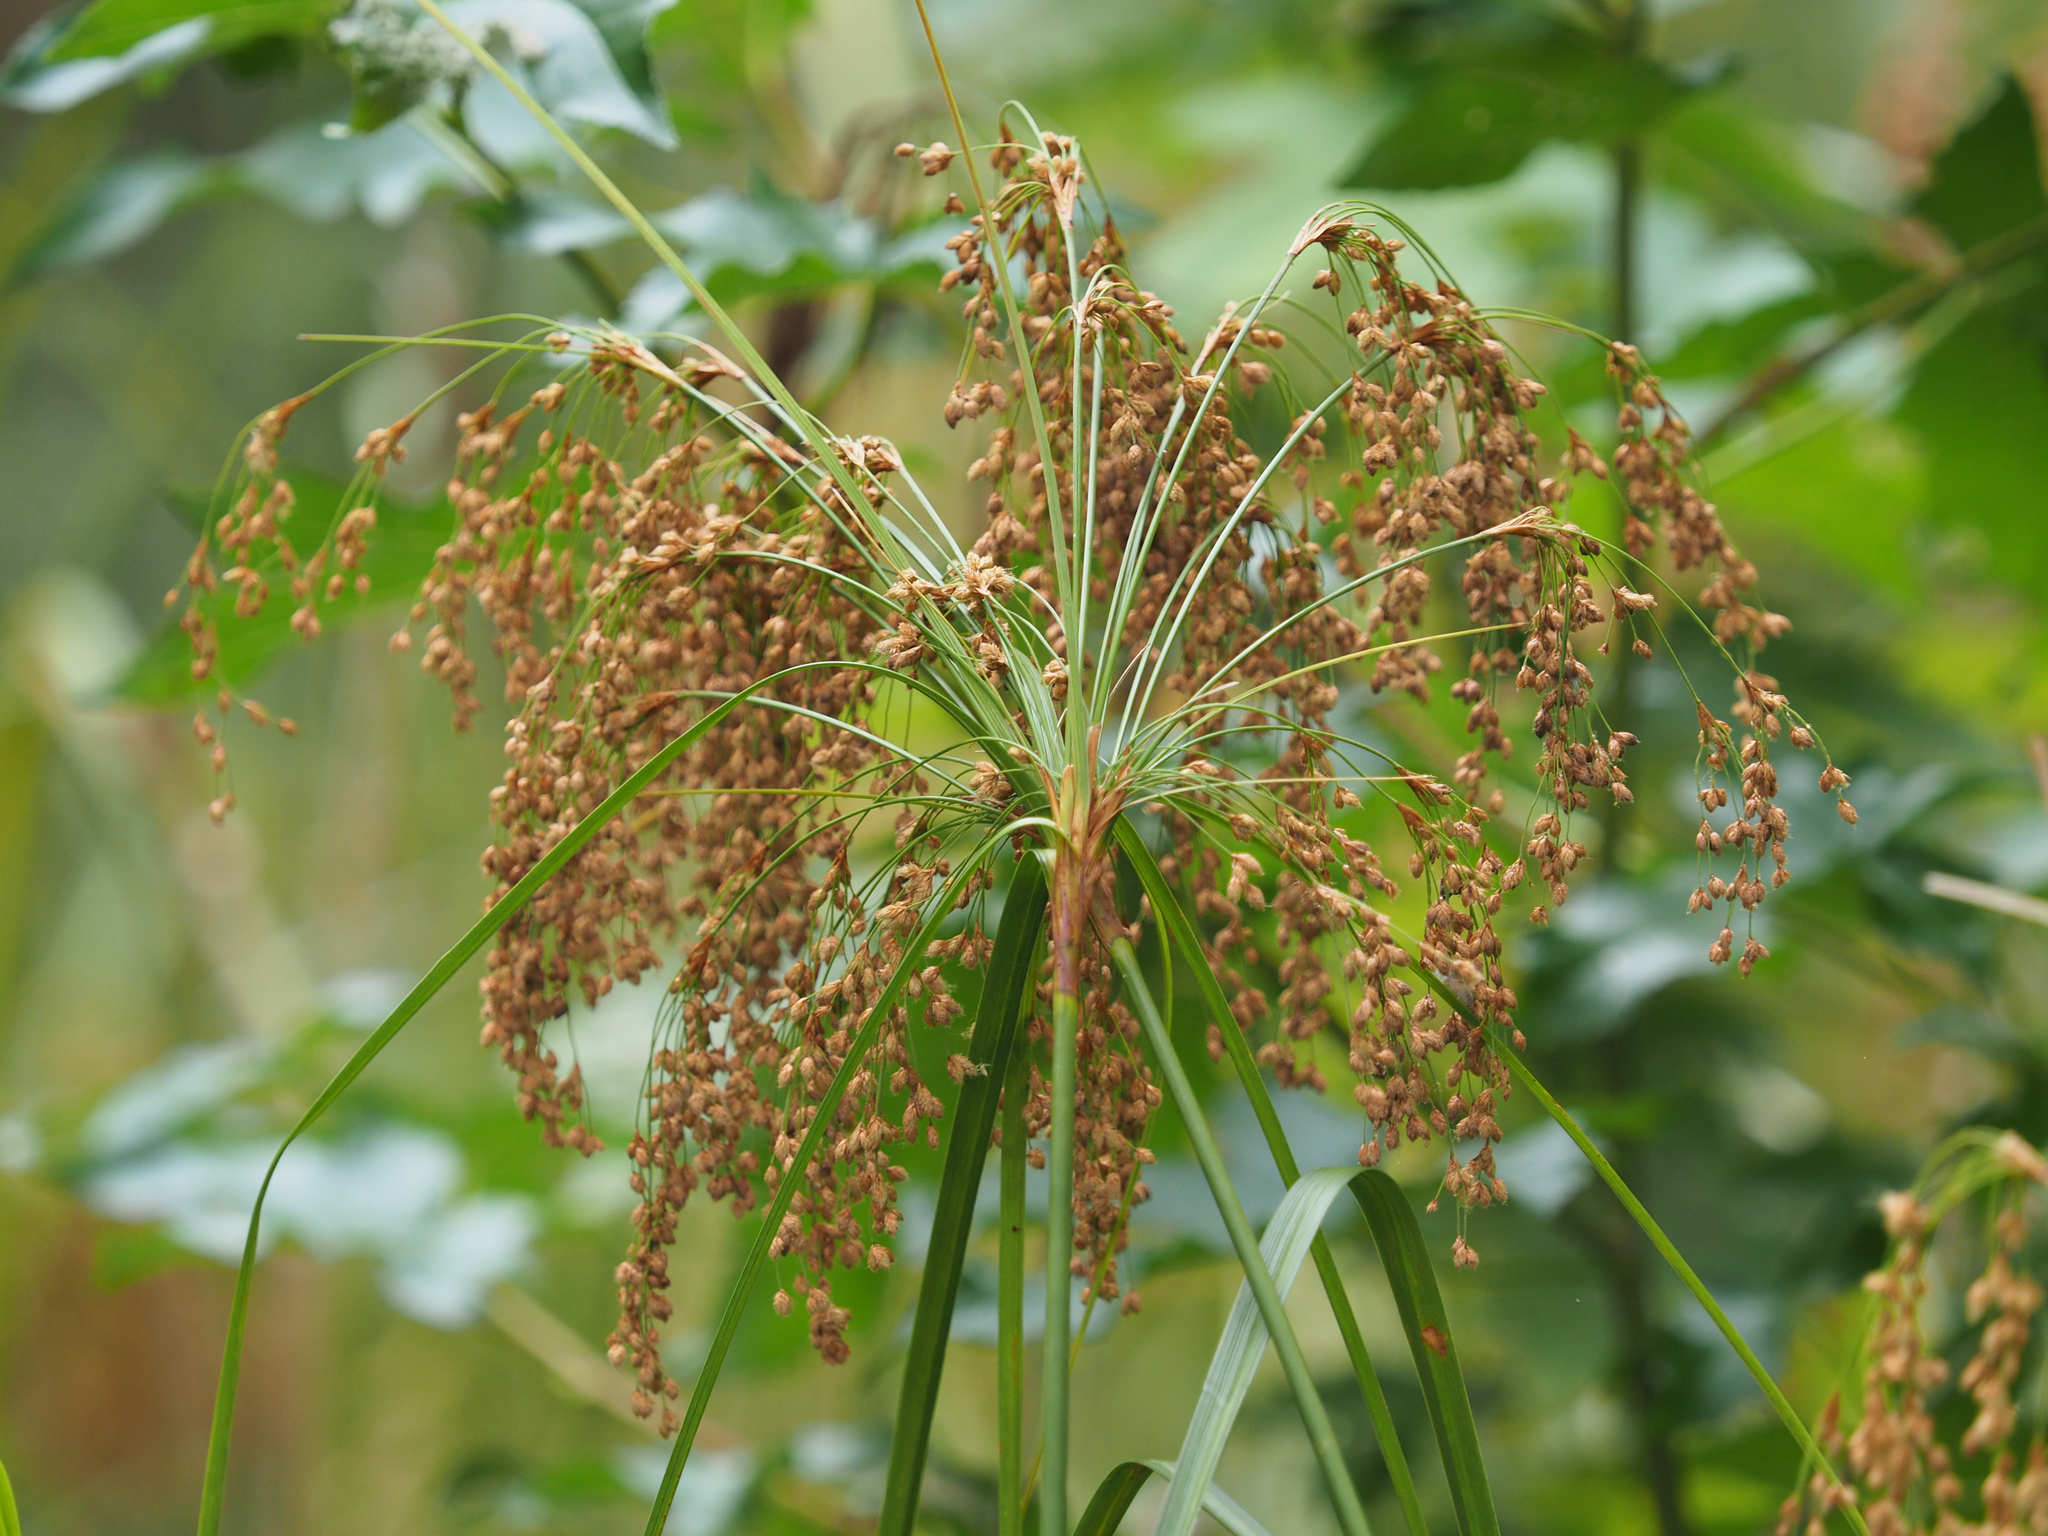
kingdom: Plantae
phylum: Tracheophyta
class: Liliopsida
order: Poales
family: Cyperaceae
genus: Scirpus
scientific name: Scirpus cyperinus
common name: Black-sheathed bulrush
